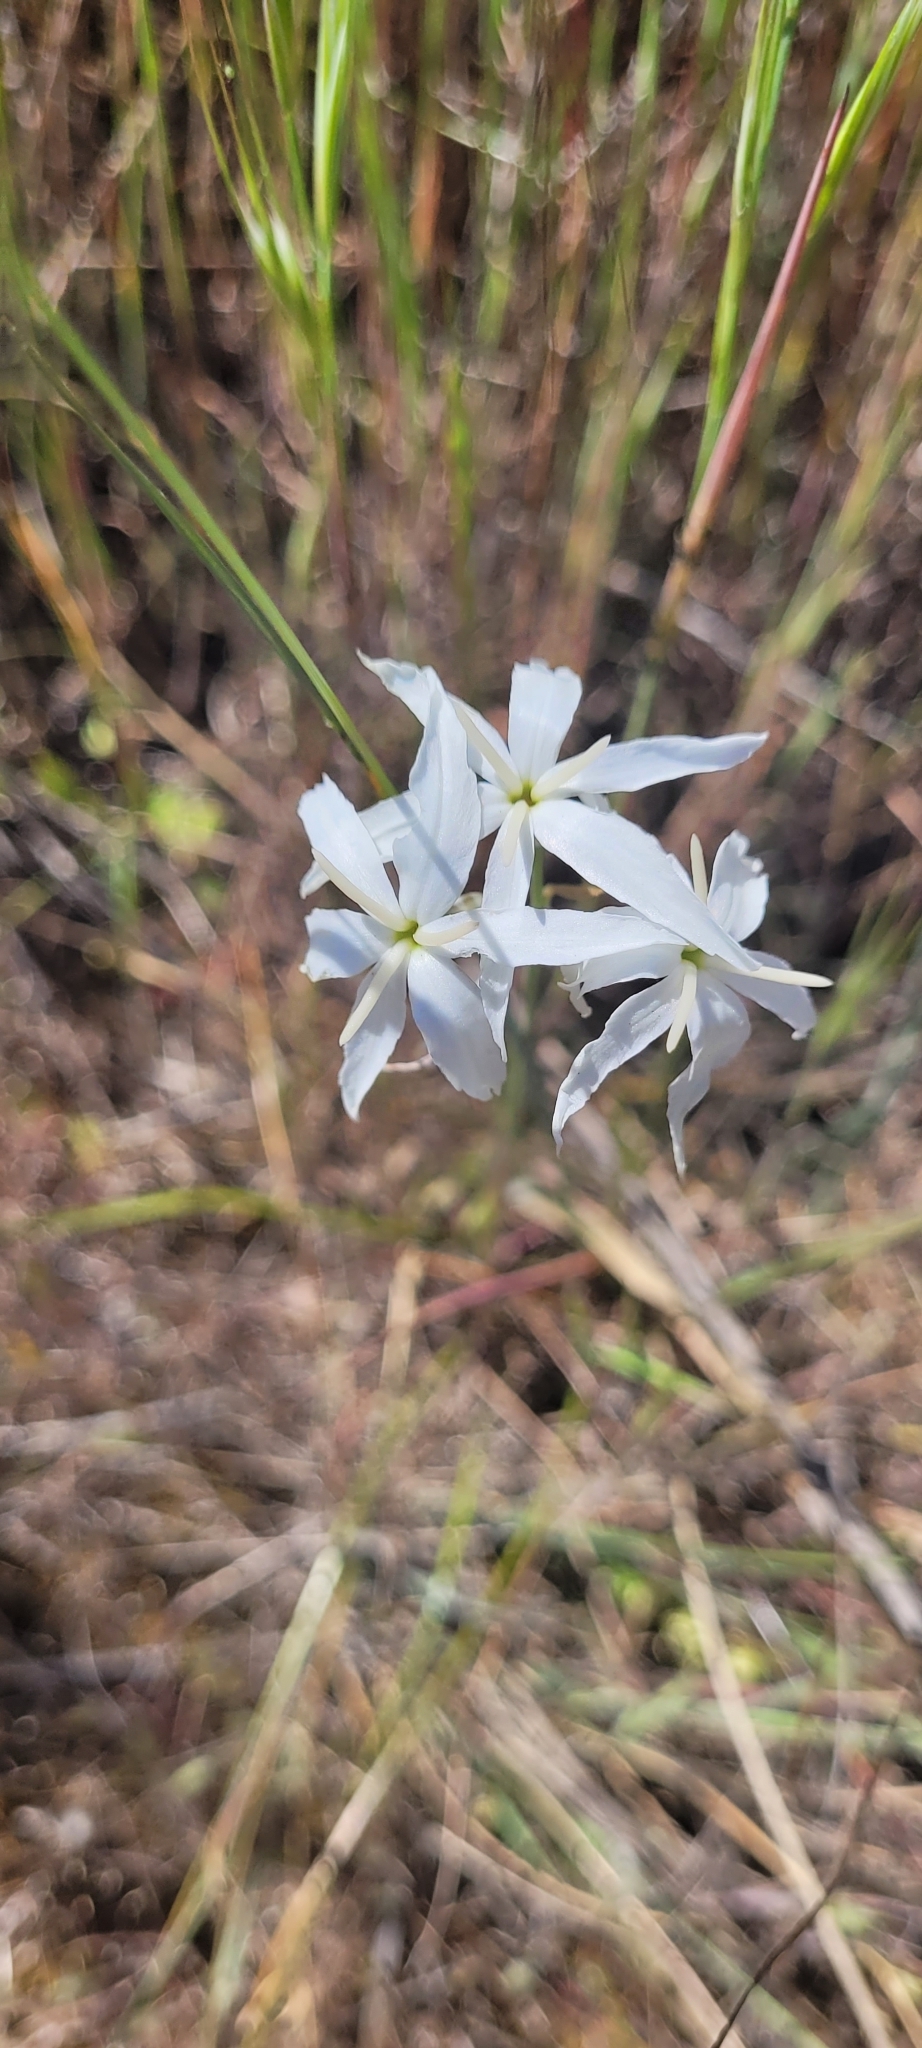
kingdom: Plantae
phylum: Tracheophyta
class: Liliopsida
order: Asparagales
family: Amaryllidaceae
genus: Leucocoryne
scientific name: Leucocoryne ixioides
